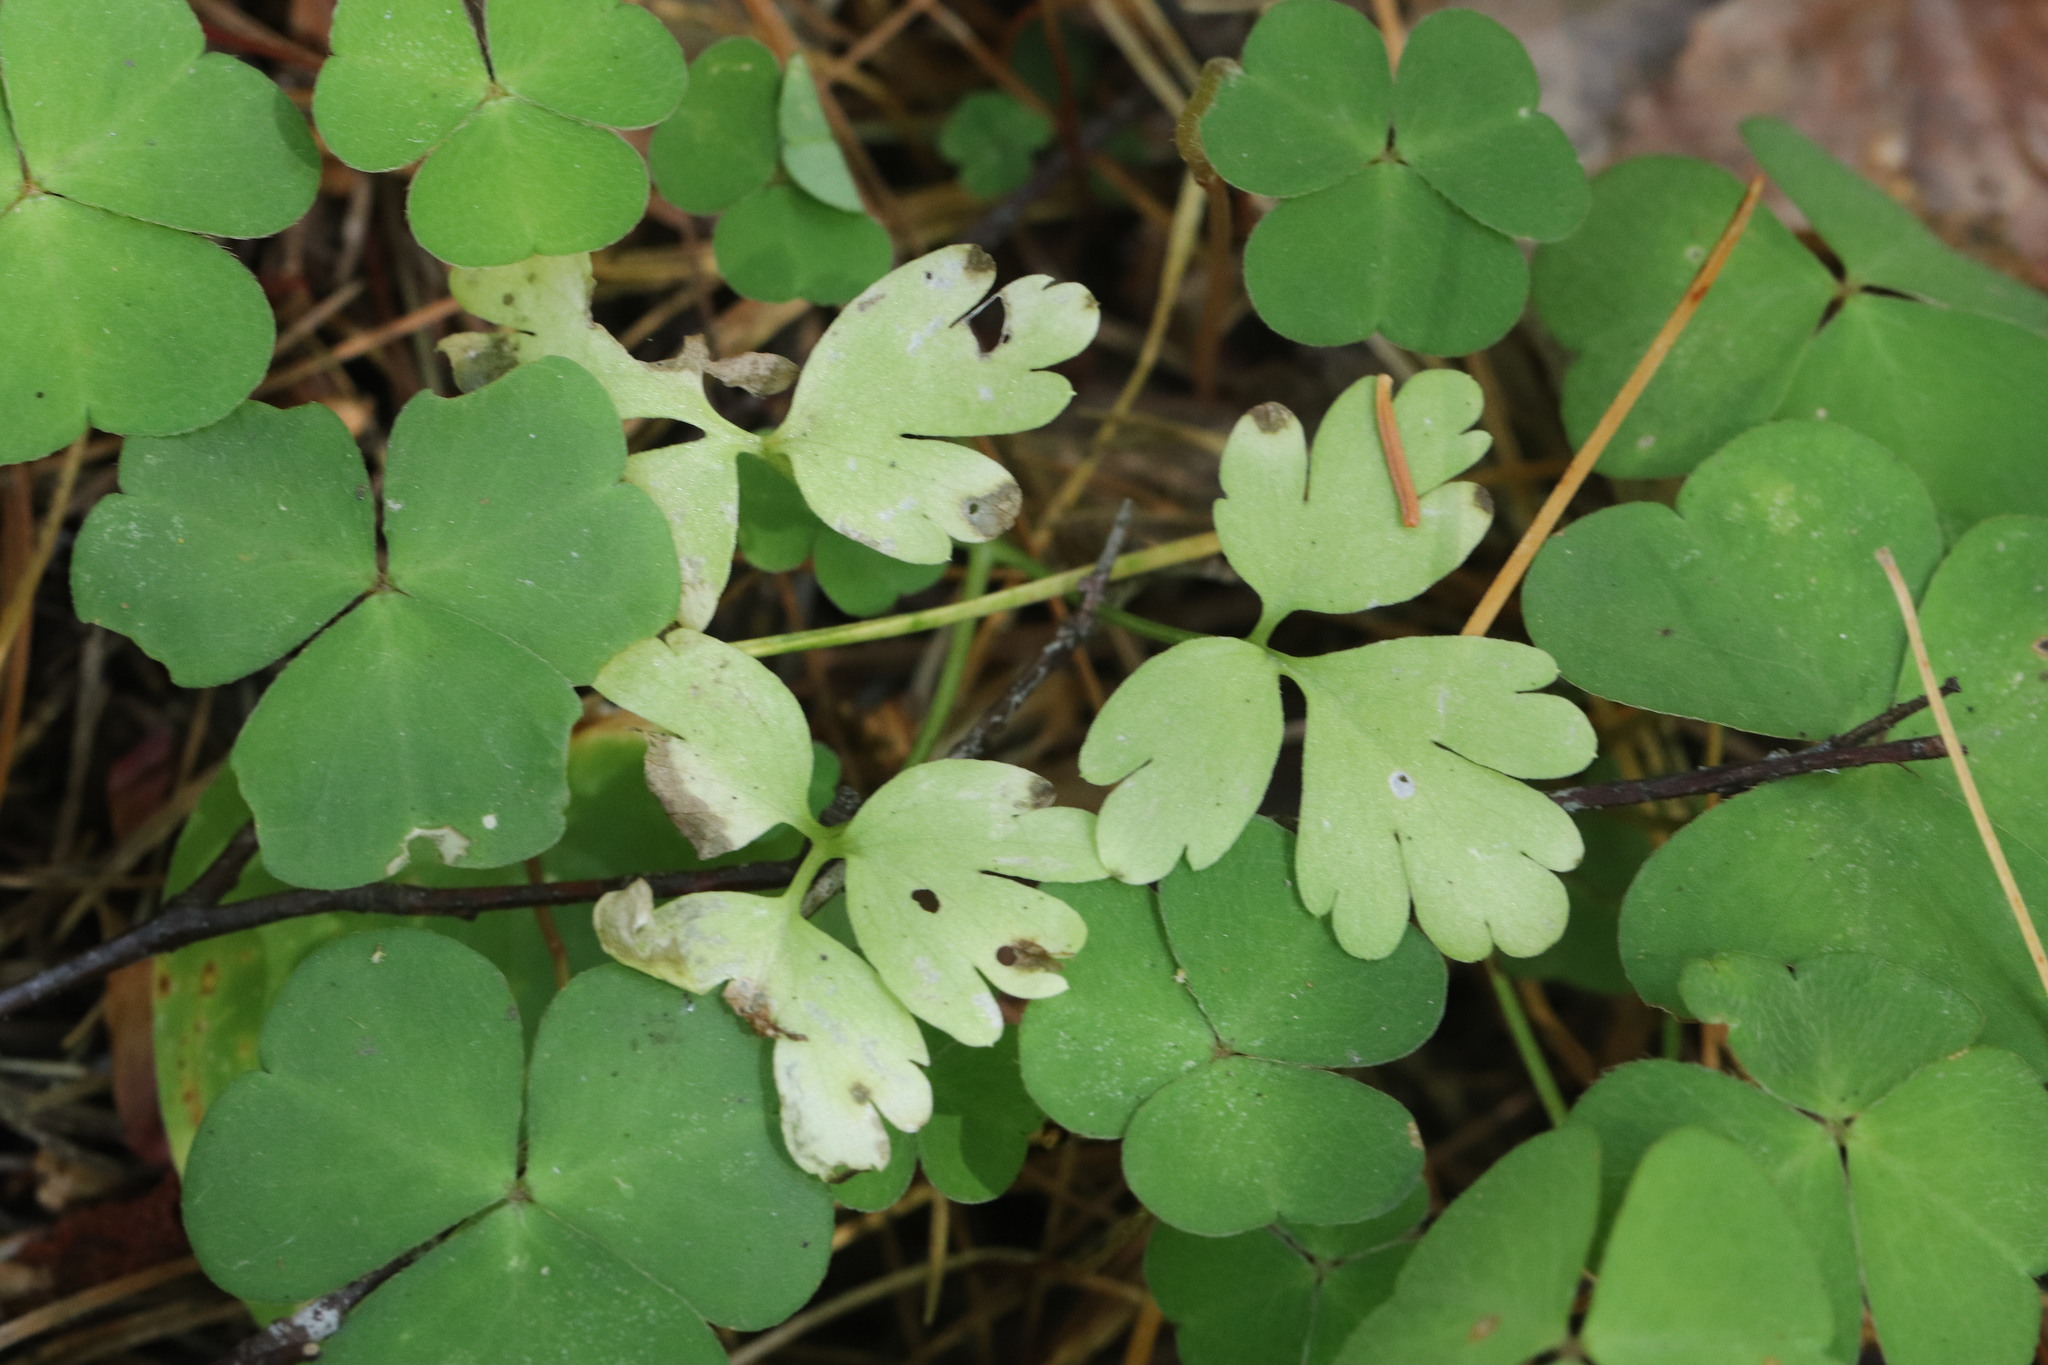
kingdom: Plantae
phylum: Tracheophyta
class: Magnoliopsida
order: Dipsacales
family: Viburnaceae
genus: Adoxa
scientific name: Adoxa moschatellina
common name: Moschatel
